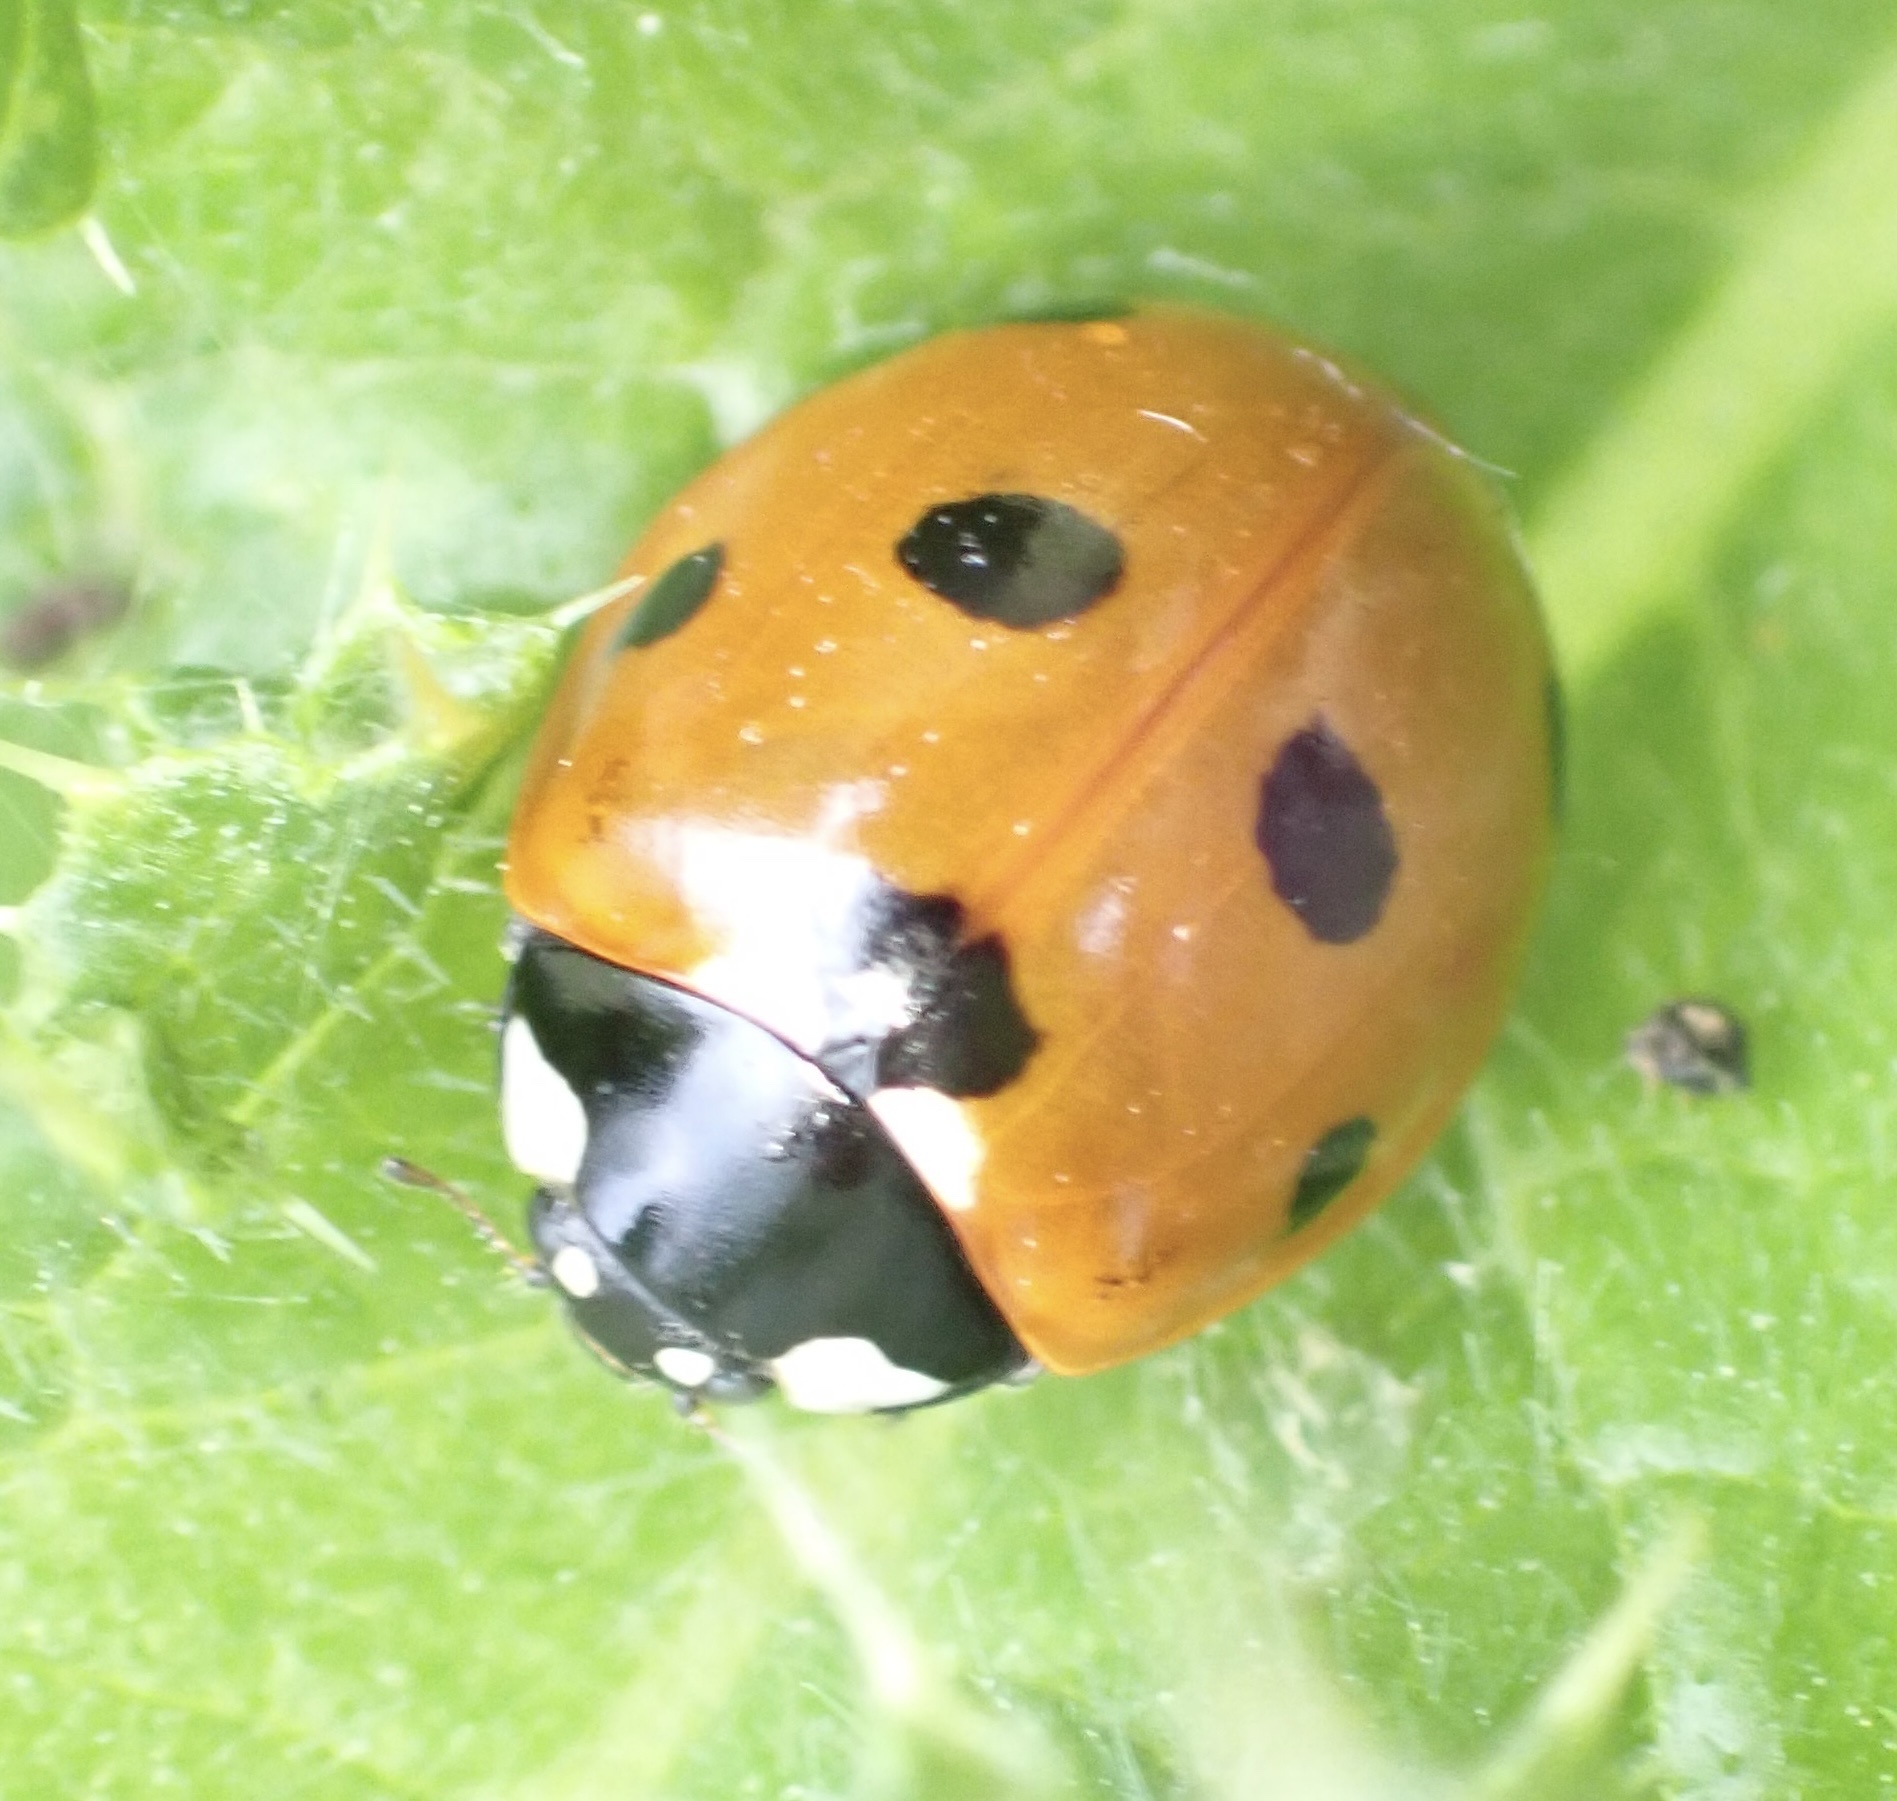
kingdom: Animalia
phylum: Arthropoda
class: Insecta
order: Coleoptera
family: Coccinellidae
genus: Coccinella
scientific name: Coccinella septempunctata
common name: Sevenspotted lady beetle
